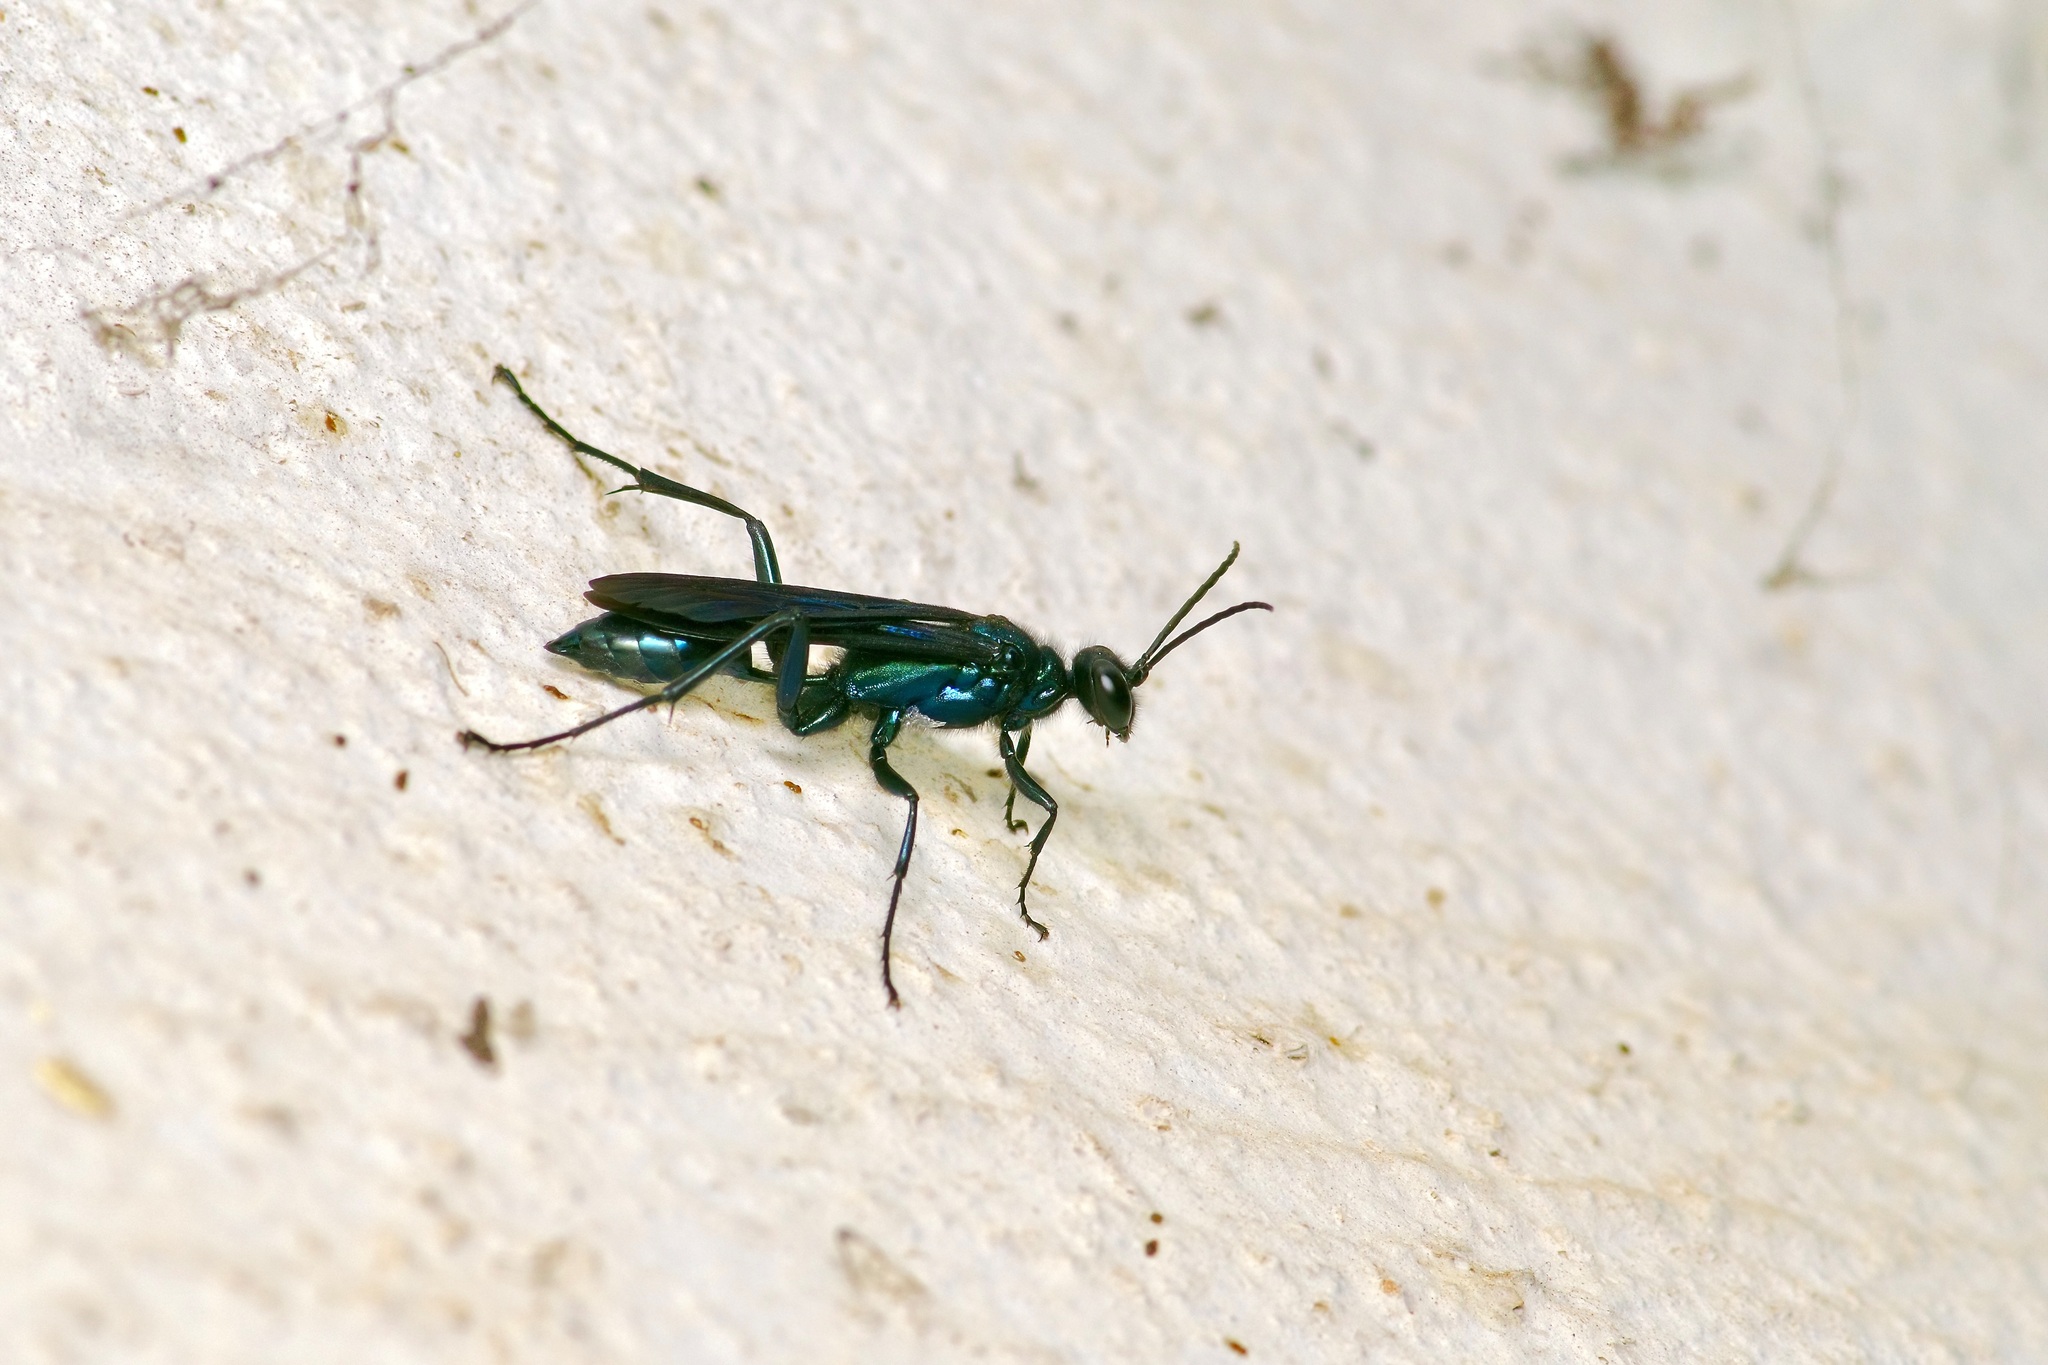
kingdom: Animalia
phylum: Arthropoda
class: Insecta
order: Hymenoptera
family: Sphecidae
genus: Chalybion
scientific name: Chalybion californicum
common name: Mud dauber
